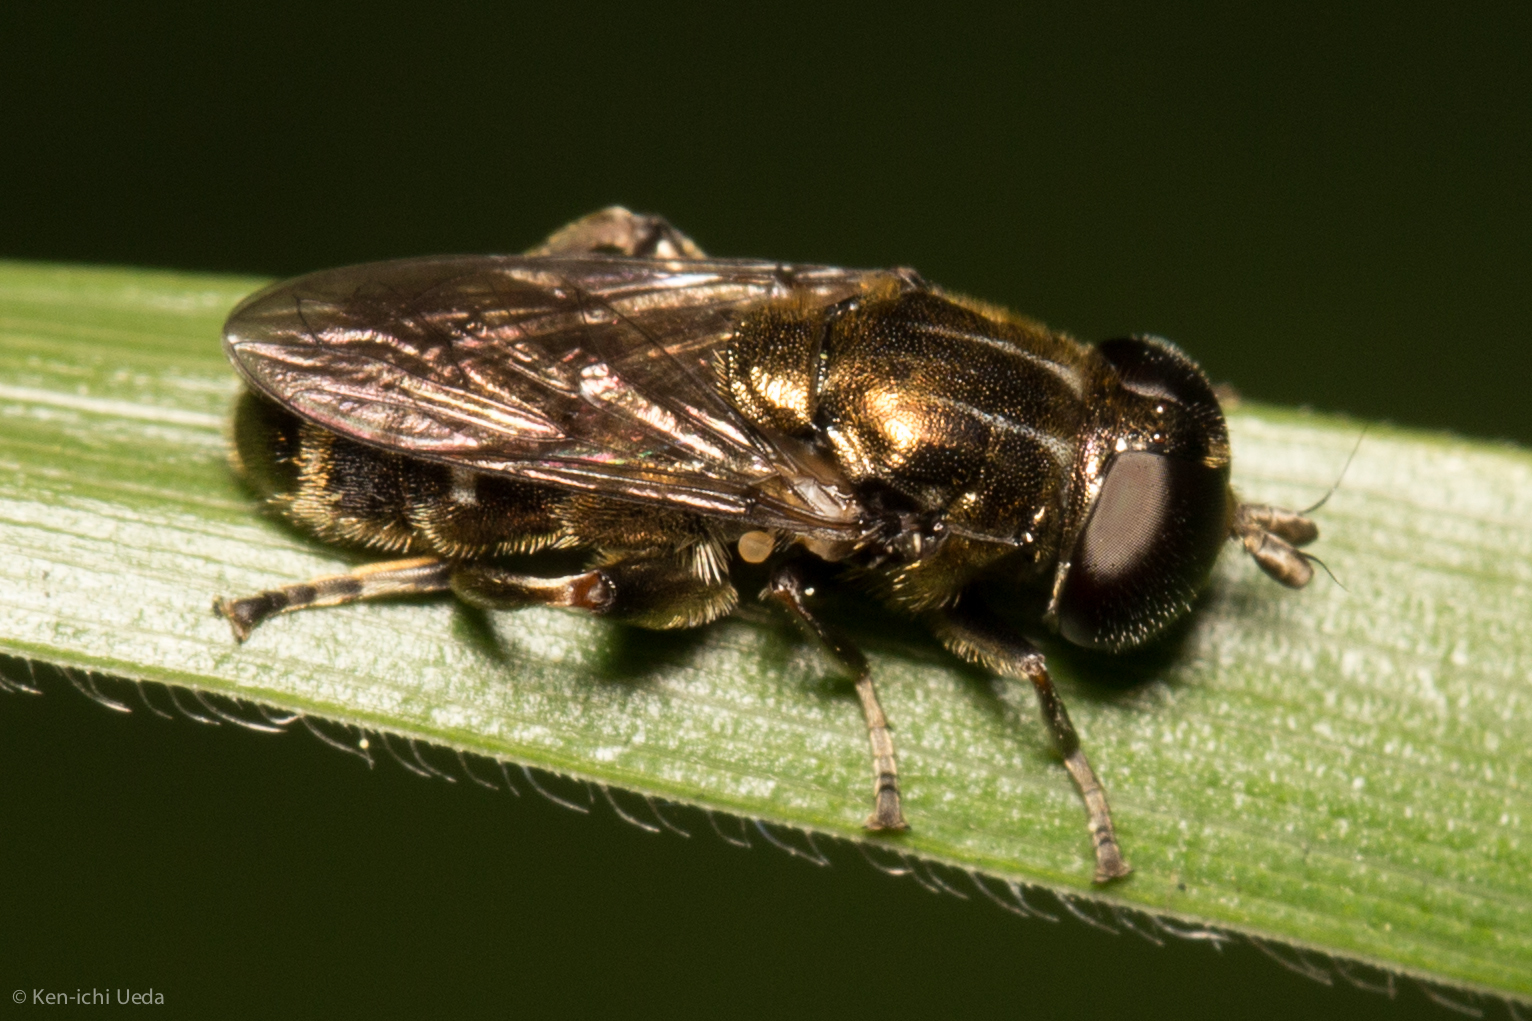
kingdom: Animalia
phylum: Arthropoda
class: Insecta
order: Diptera
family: Syrphidae
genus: Eumerus
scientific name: Eumerus
